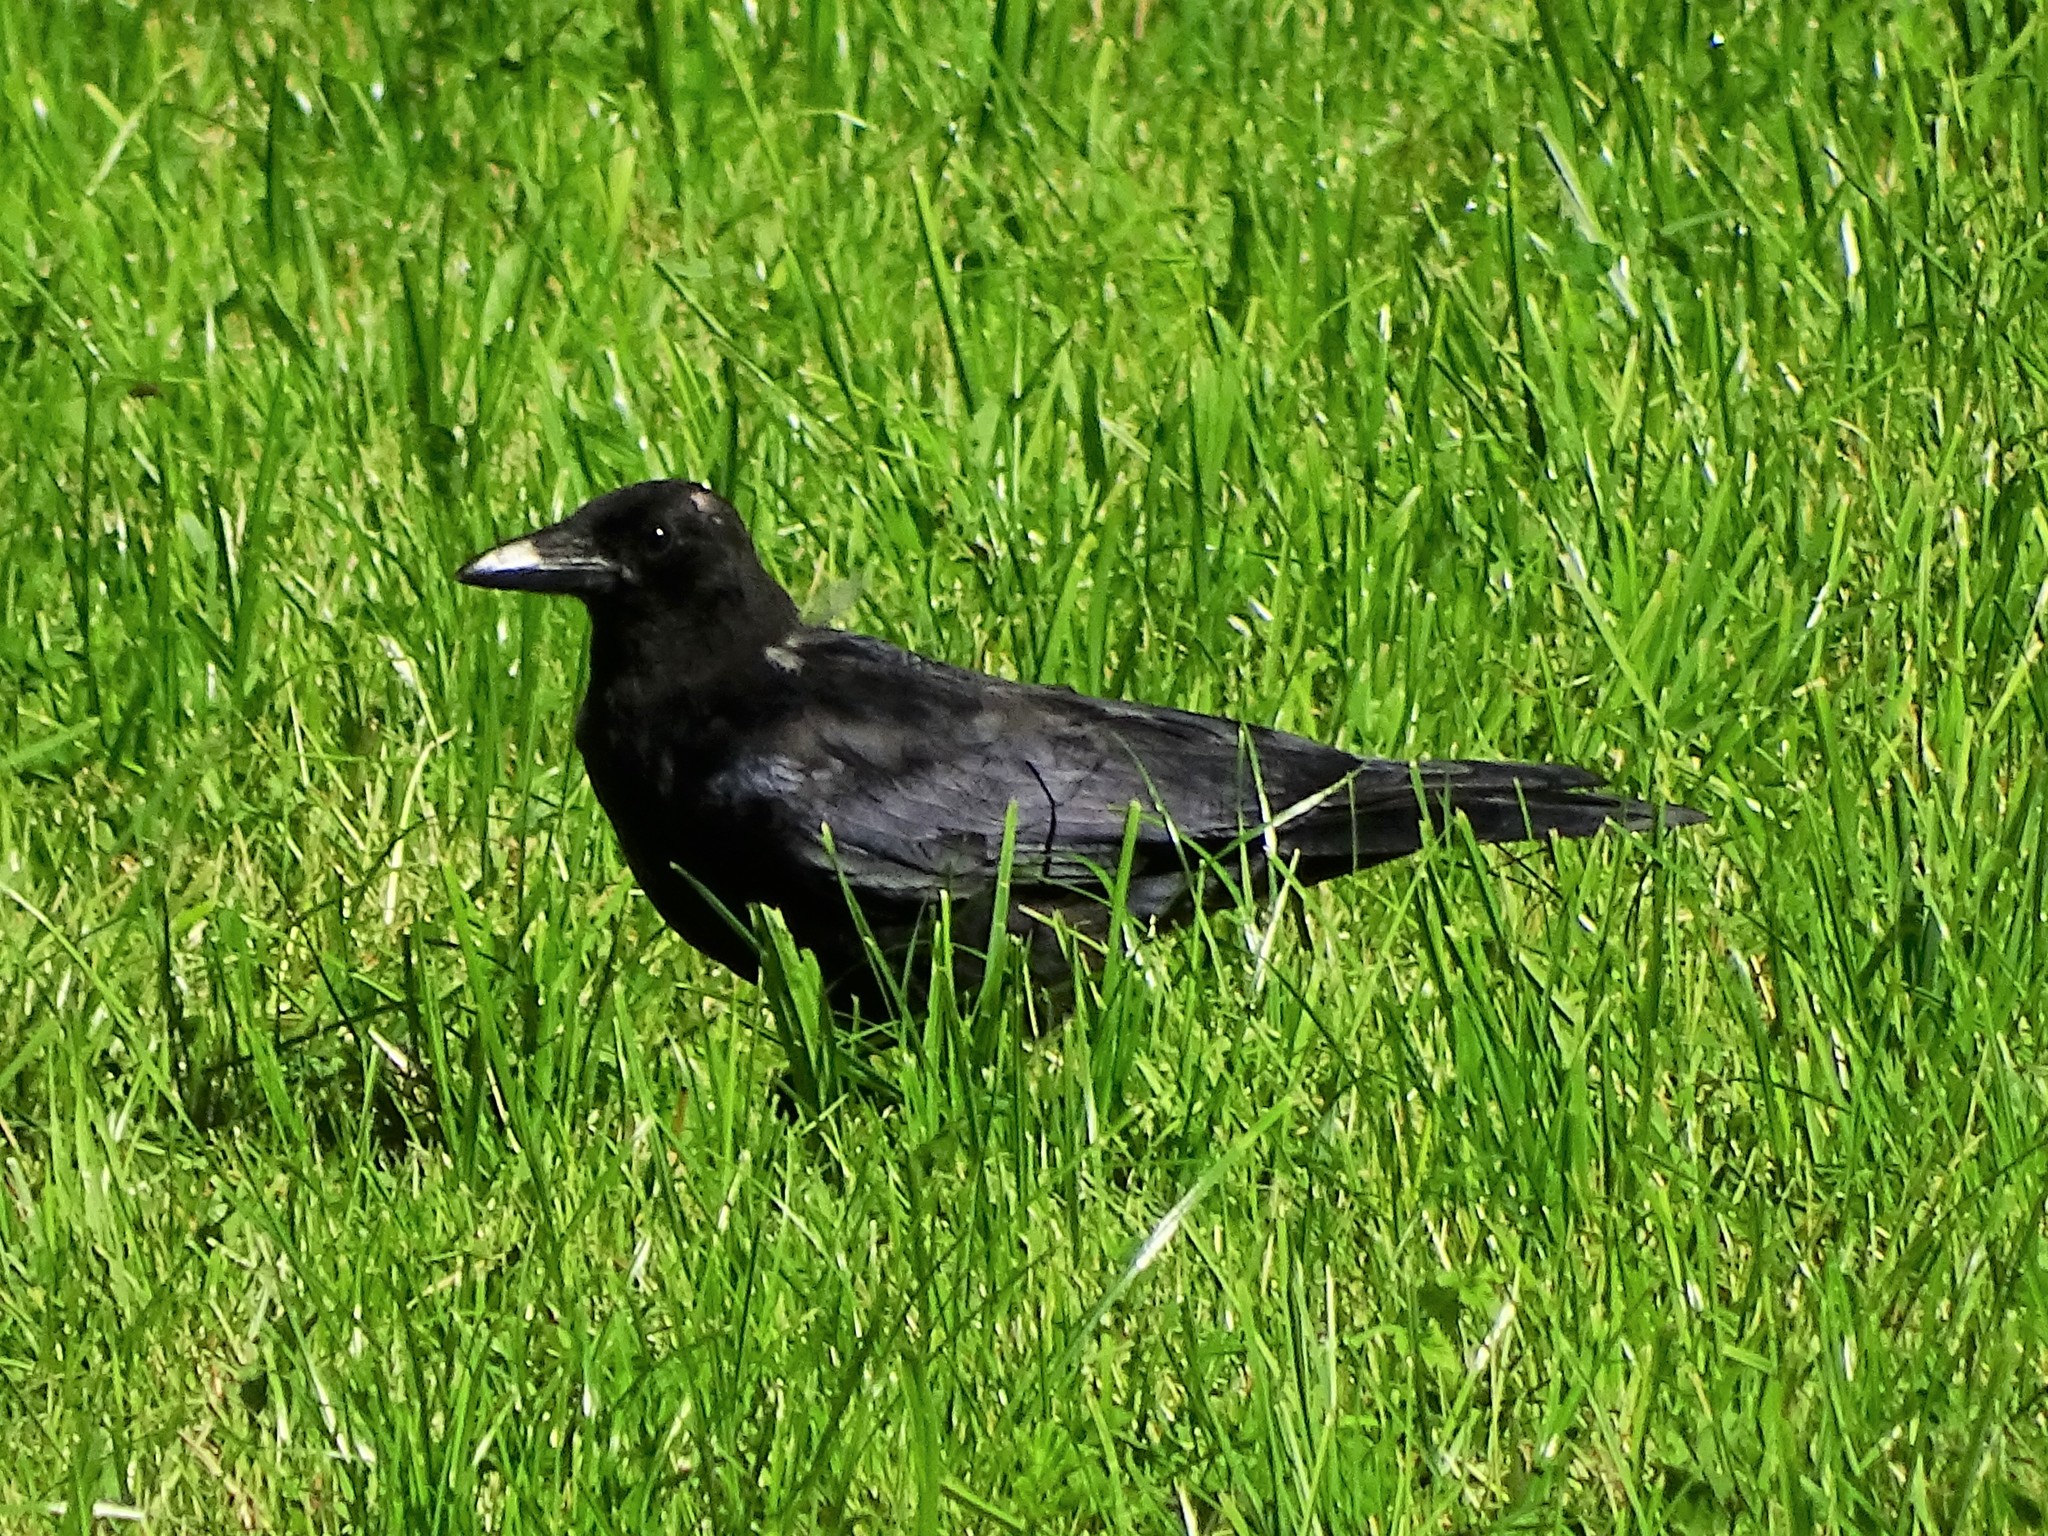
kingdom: Animalia
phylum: Chordata
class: Aves
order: Passeriformes
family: Corvidae
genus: Corvus
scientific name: Corvus corone
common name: Carrion crow
